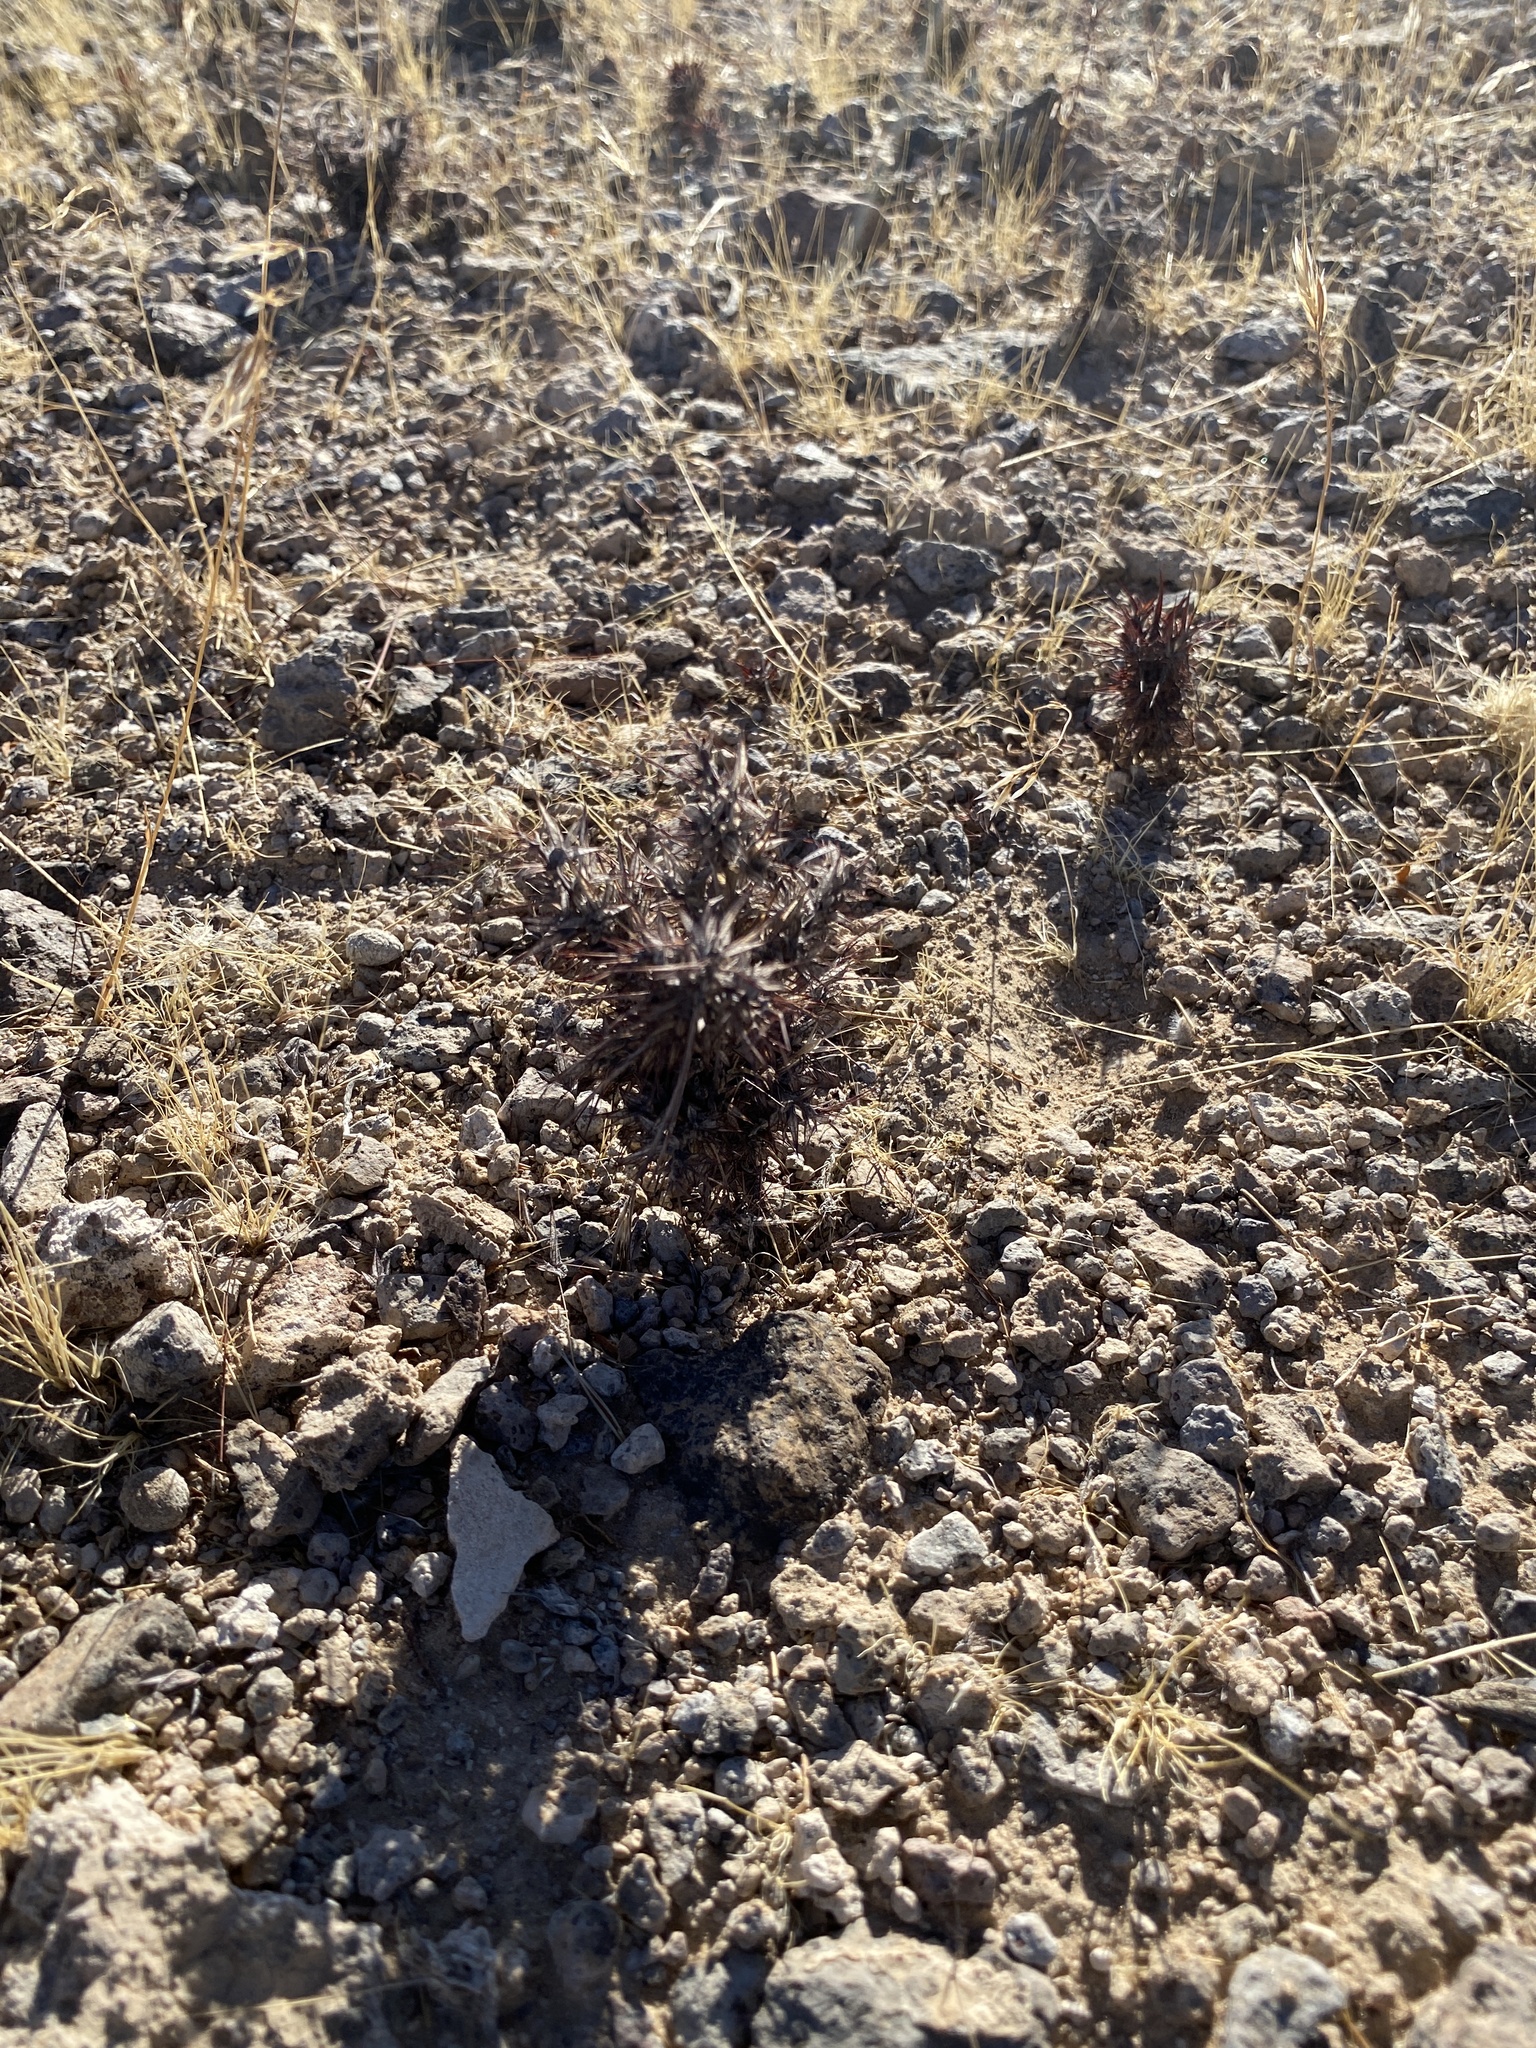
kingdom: Plantae
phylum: Tracheophyta
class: Magnoliopsida
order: Caryophyllales
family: Polygonaceae
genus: Chorizanthe
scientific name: Chorizanthe rigida
